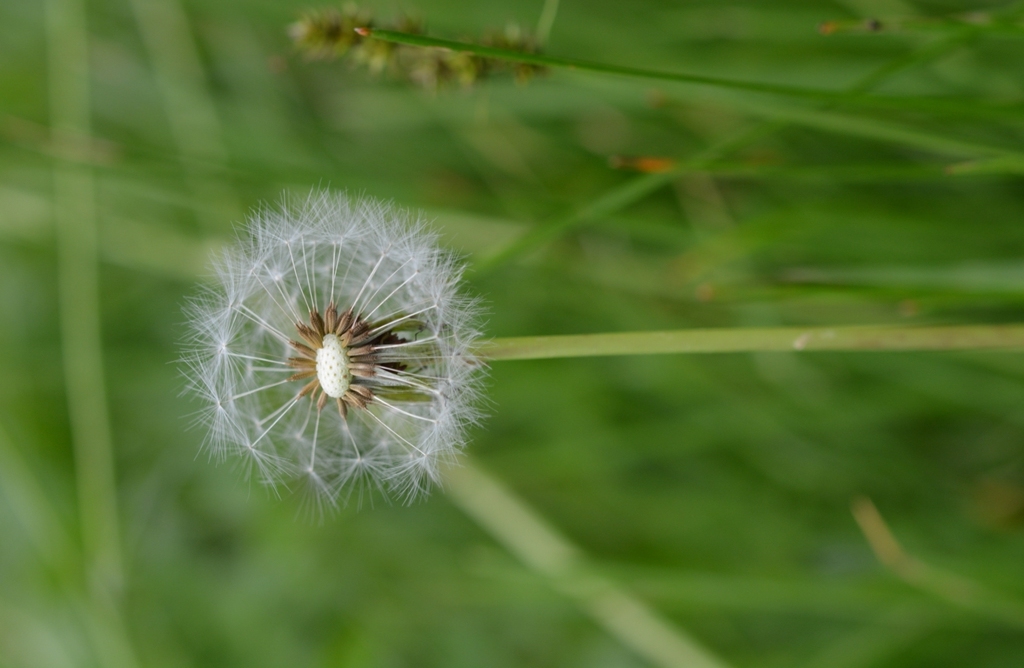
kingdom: Plantae
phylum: Tracheophyta
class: Magnoliopsida
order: Asterales
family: Asteraceae
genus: Taraxacum
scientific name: Taraxacum officinale
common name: Common dandelion
